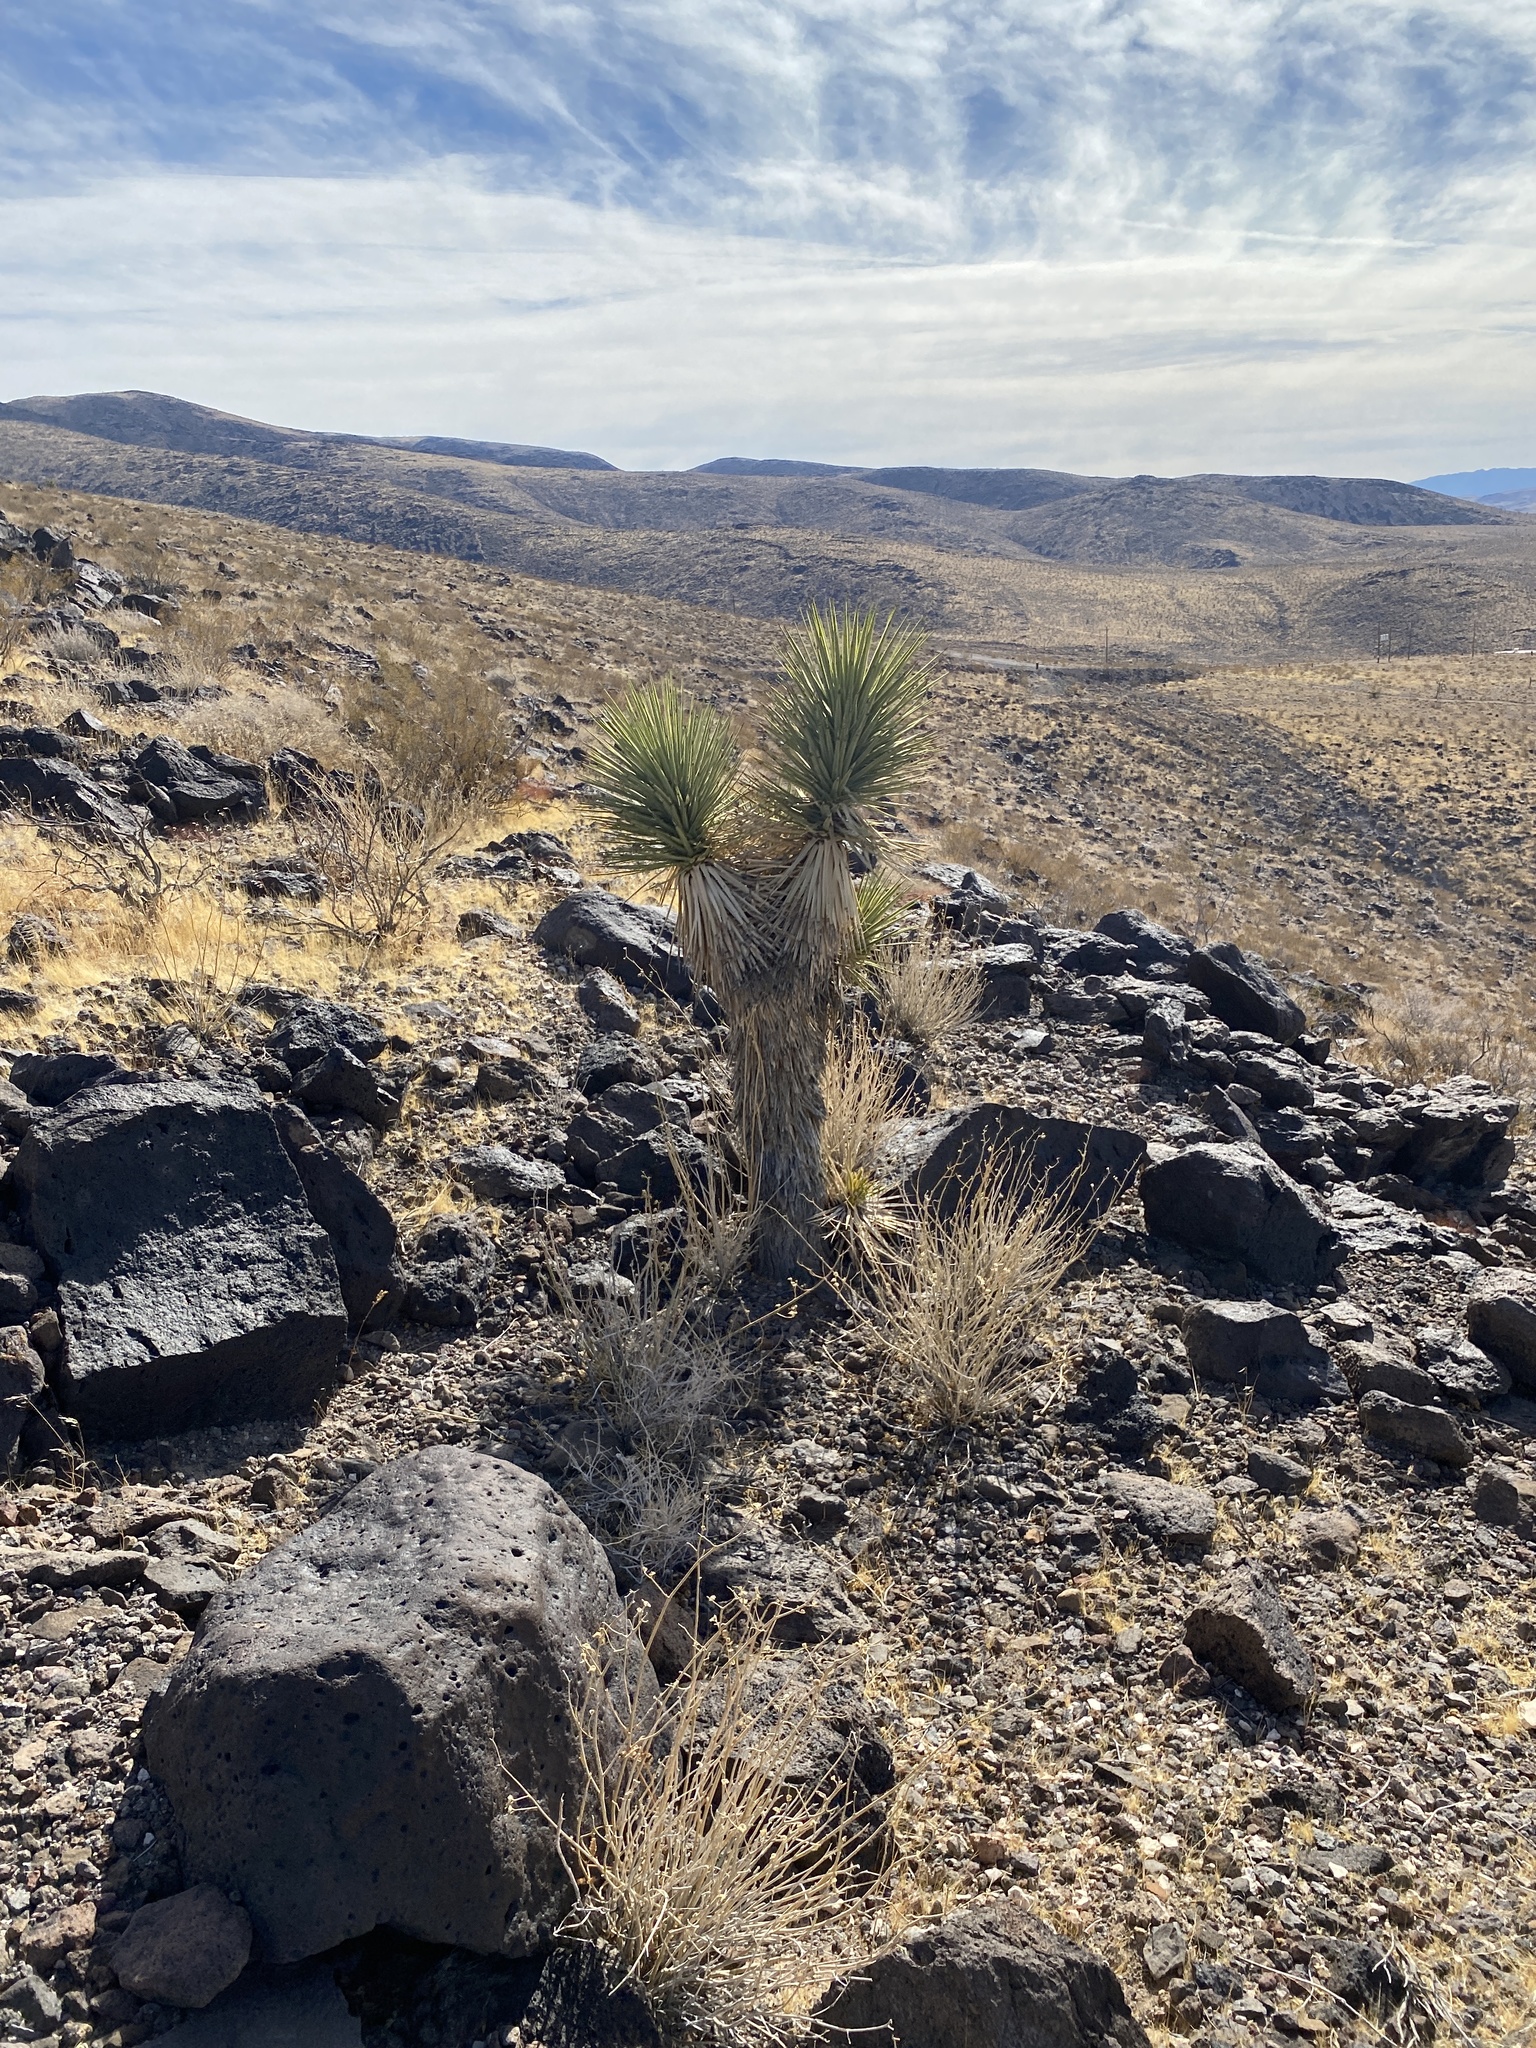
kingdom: Plantae
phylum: Tracheophyta
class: Liliopsida
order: Asparagales
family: Asparagaceae
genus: Yucca
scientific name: Yucca brevifolia
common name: Joshua tree
